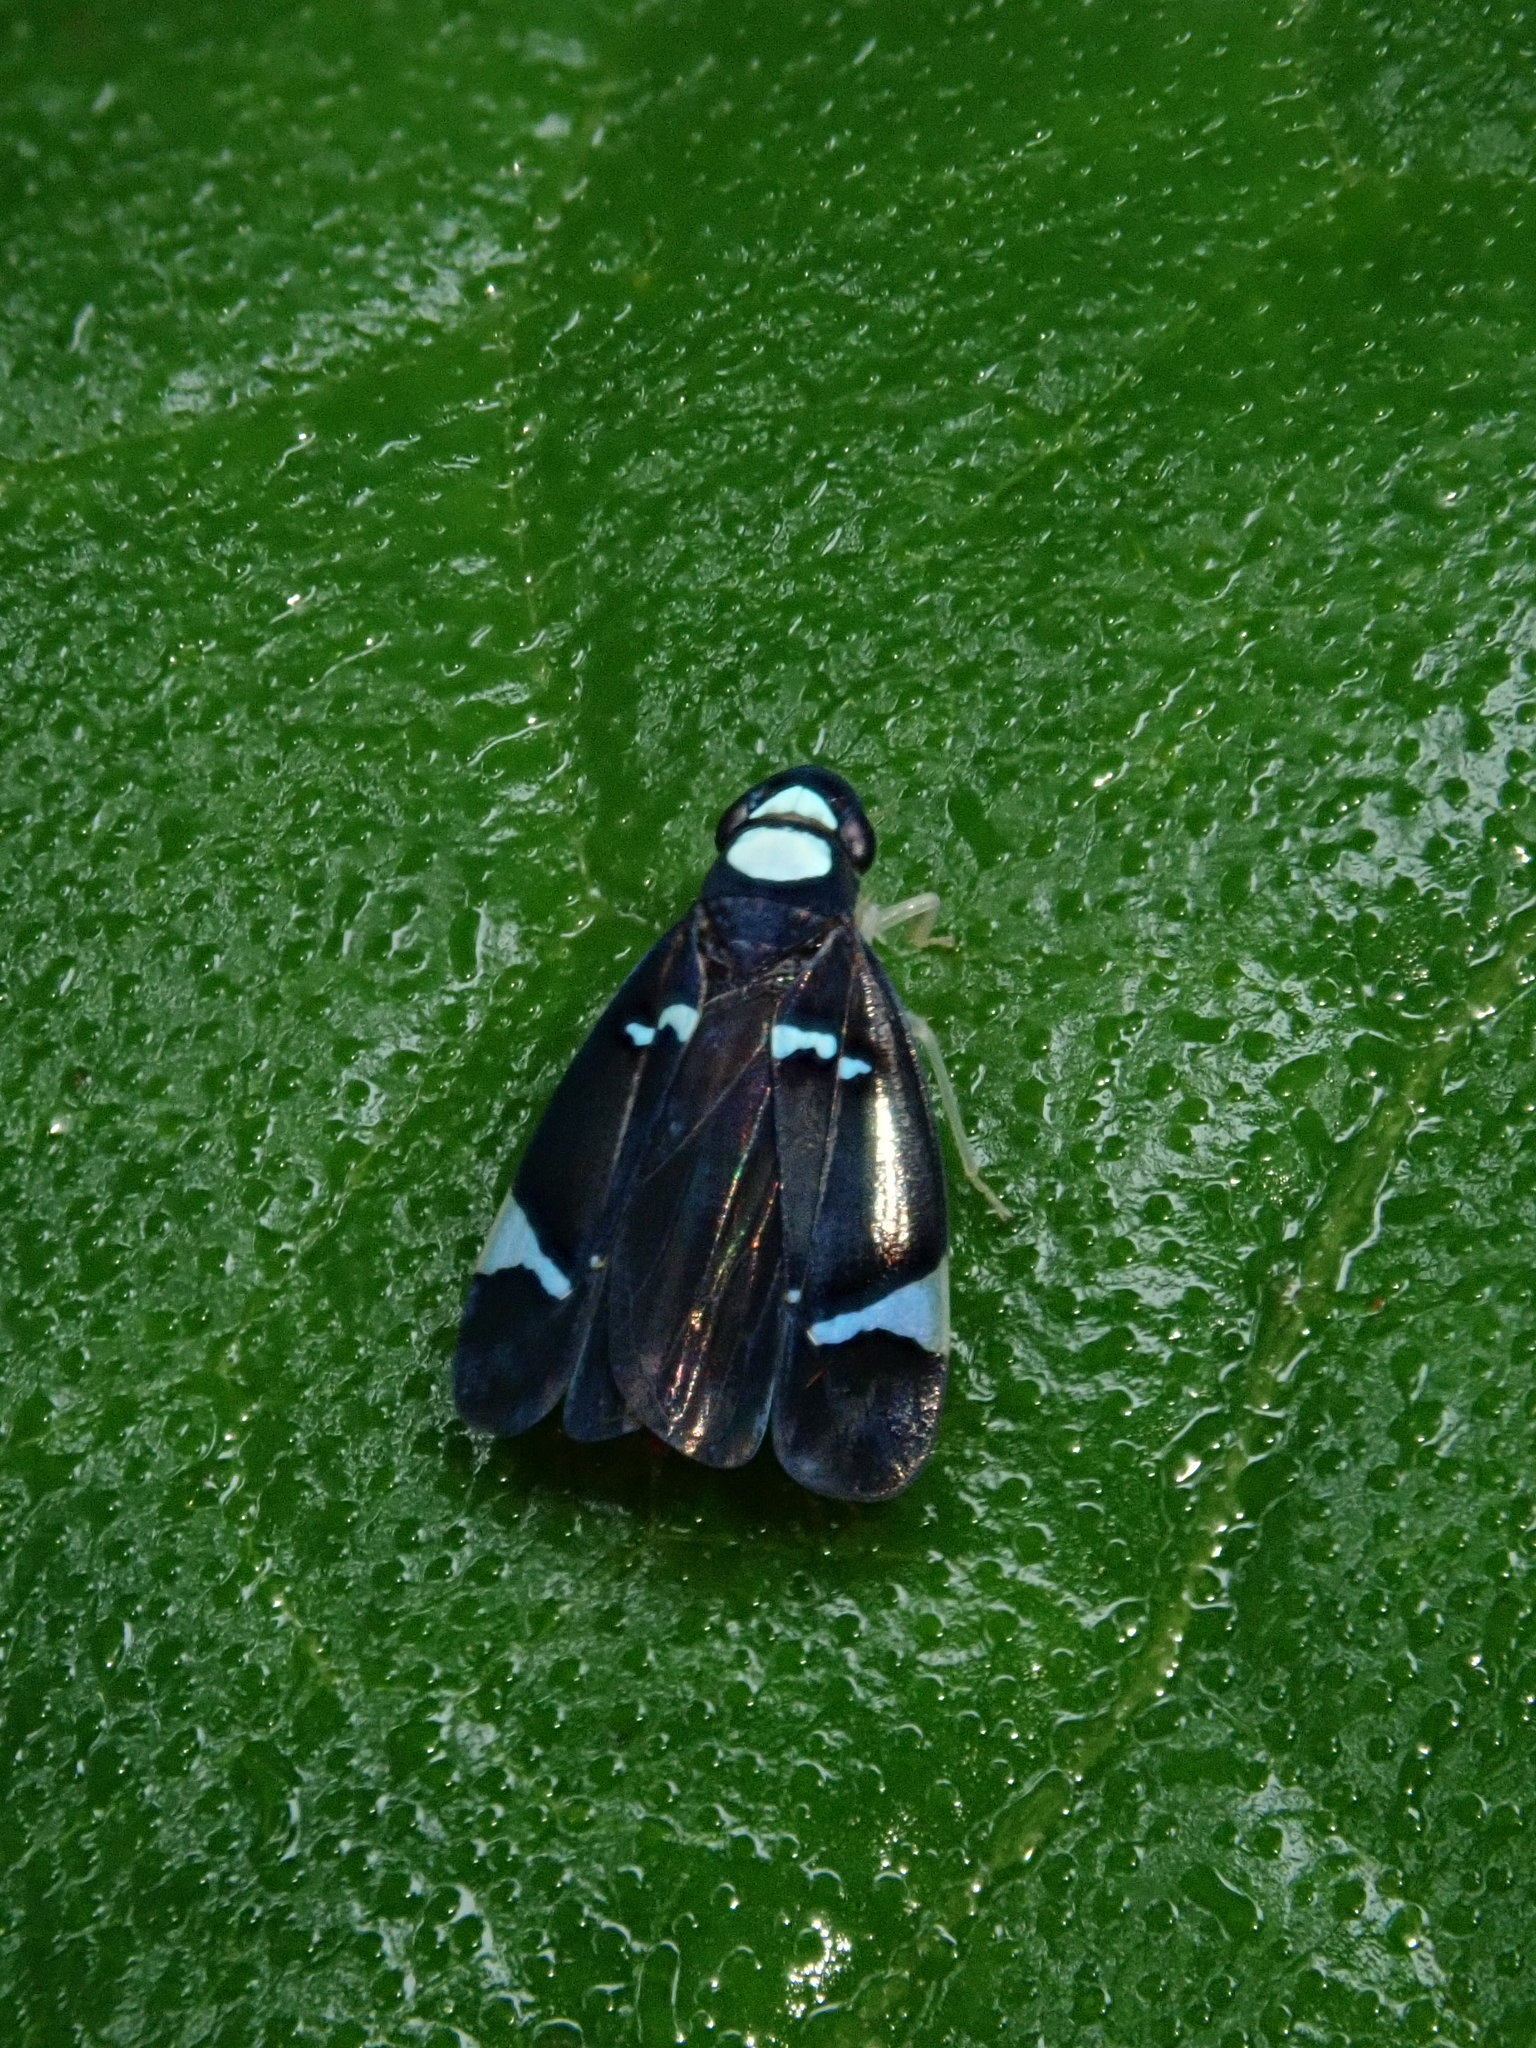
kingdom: Animalia
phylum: Arthropoda
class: Insecta
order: Hemiptera
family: Cicadellidae
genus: Erythrogonia
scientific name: Erythrogonia ekila
